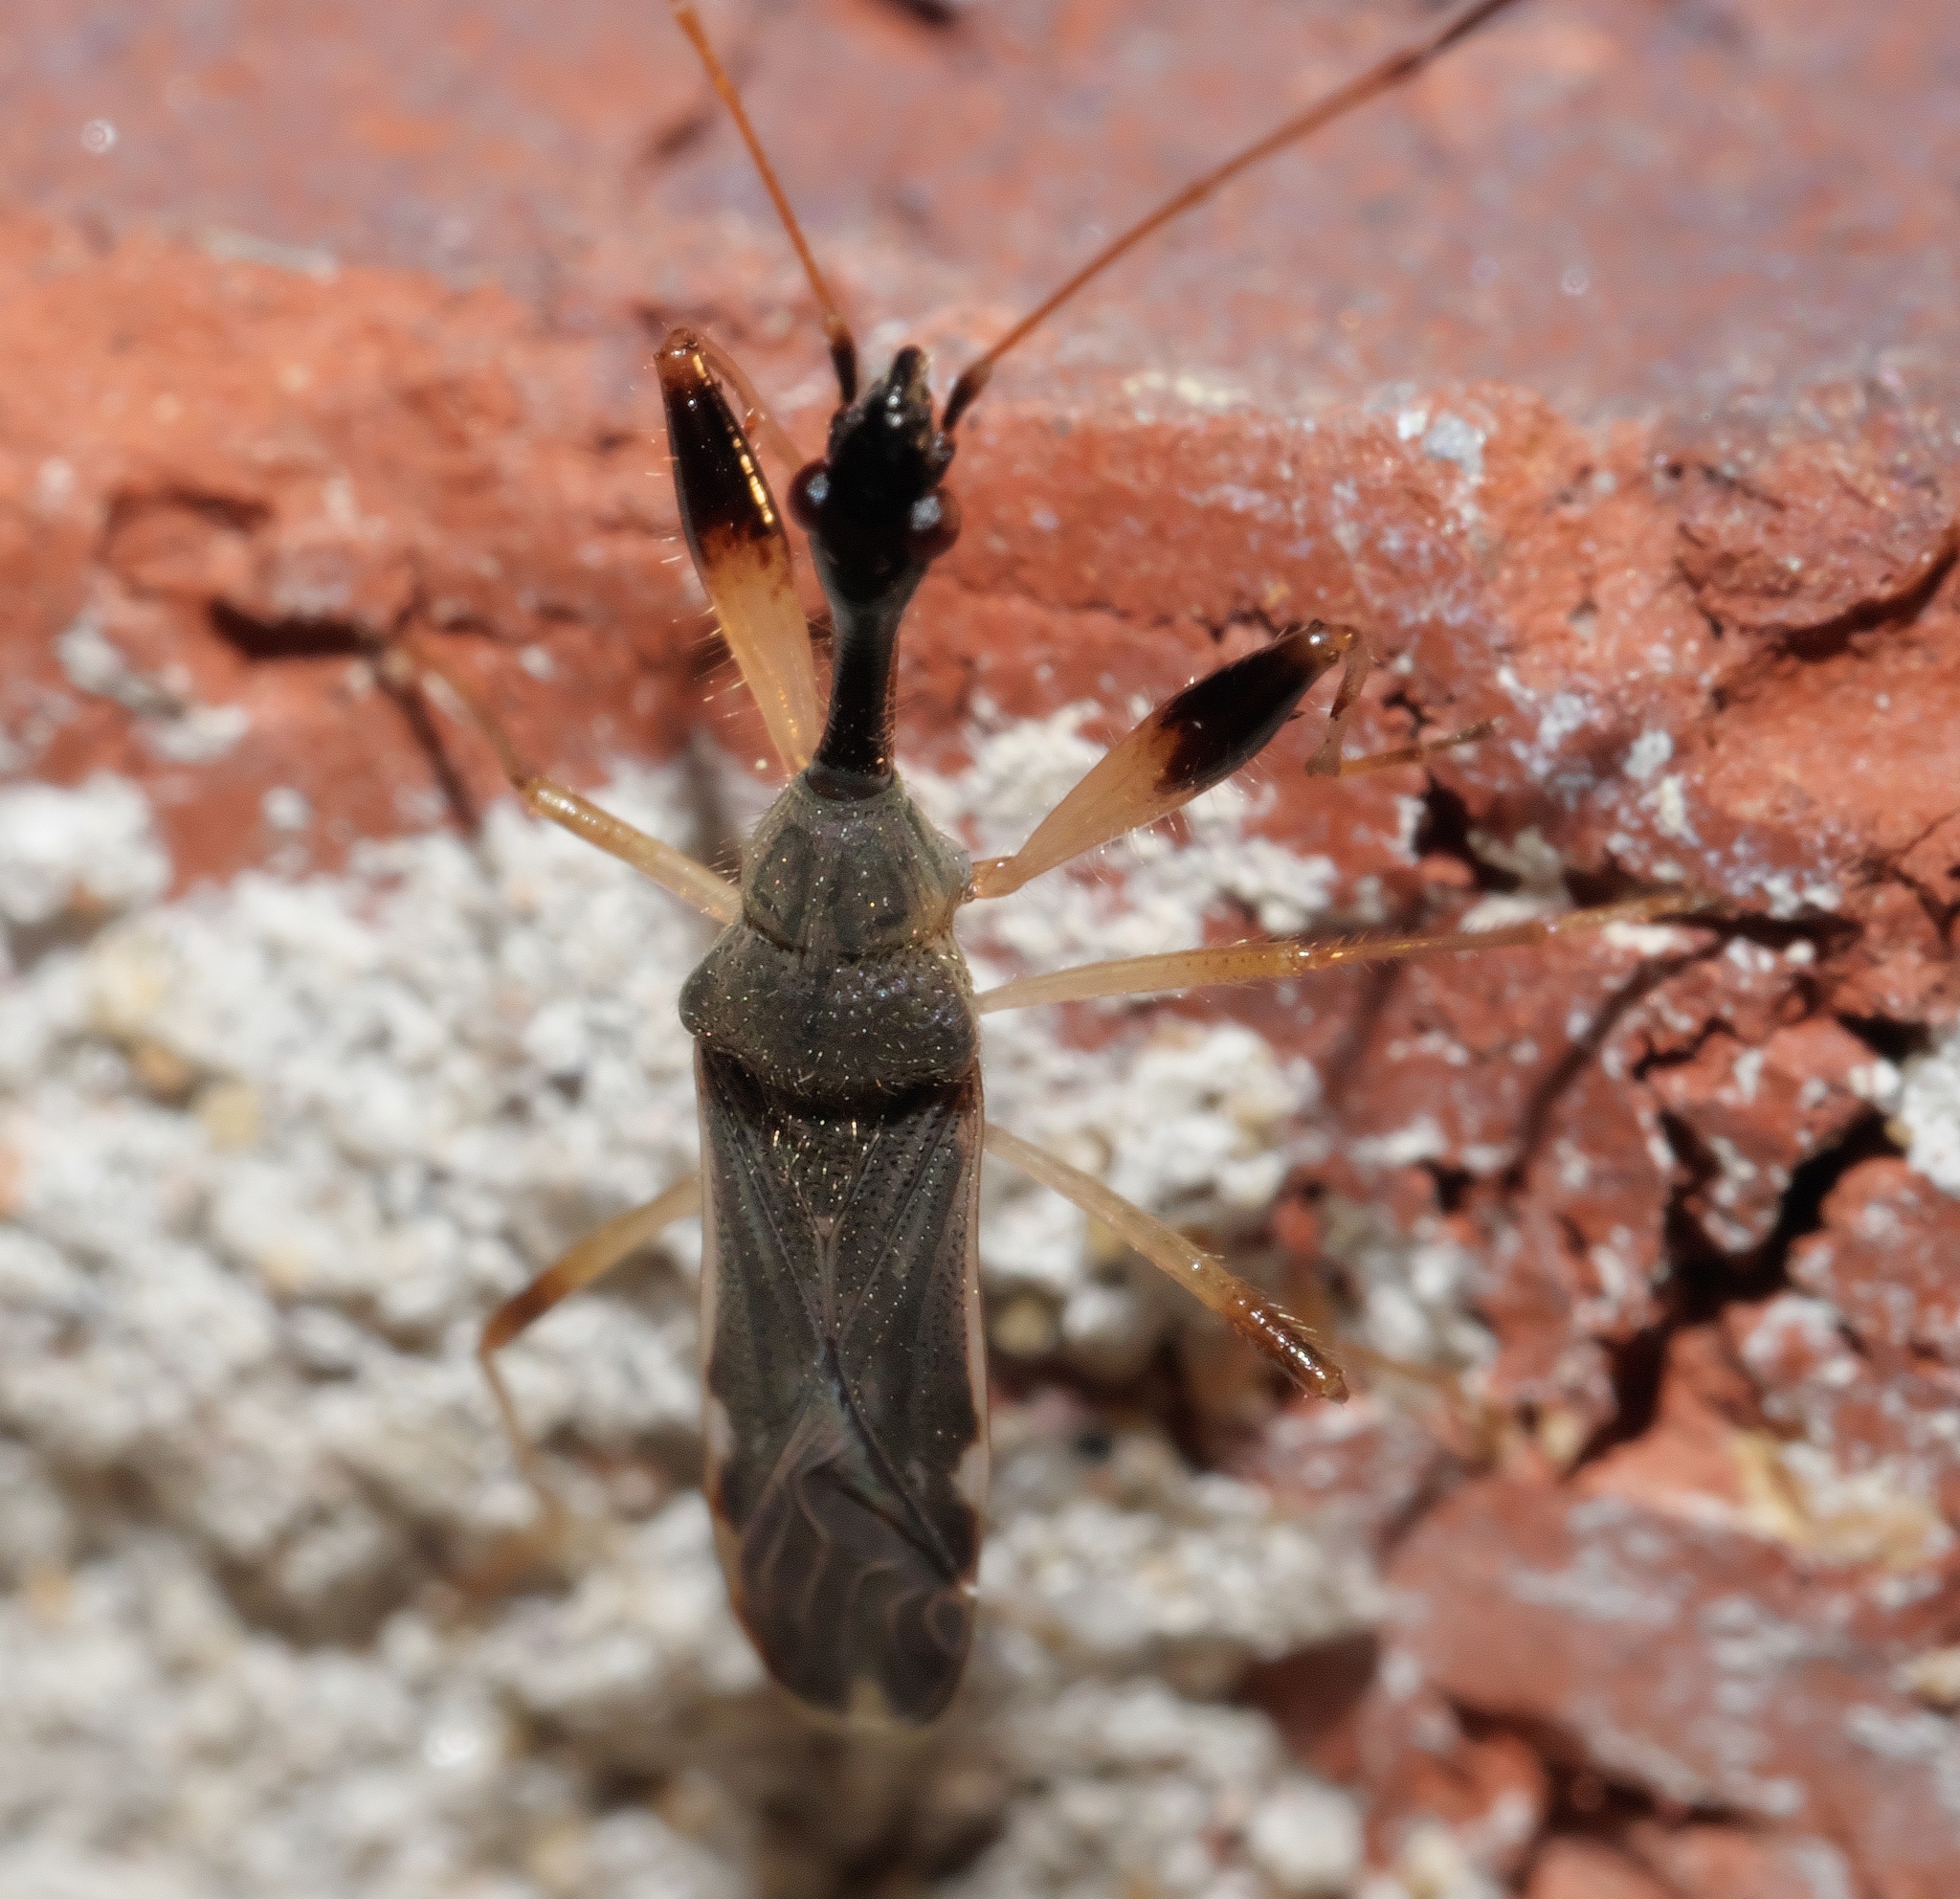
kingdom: Animalia
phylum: Arthropoda
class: Insecta
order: Hemiptera
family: Rhyparochromidae
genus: Myodocha
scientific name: Myodocha serripes
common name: Long-necked seed bug
